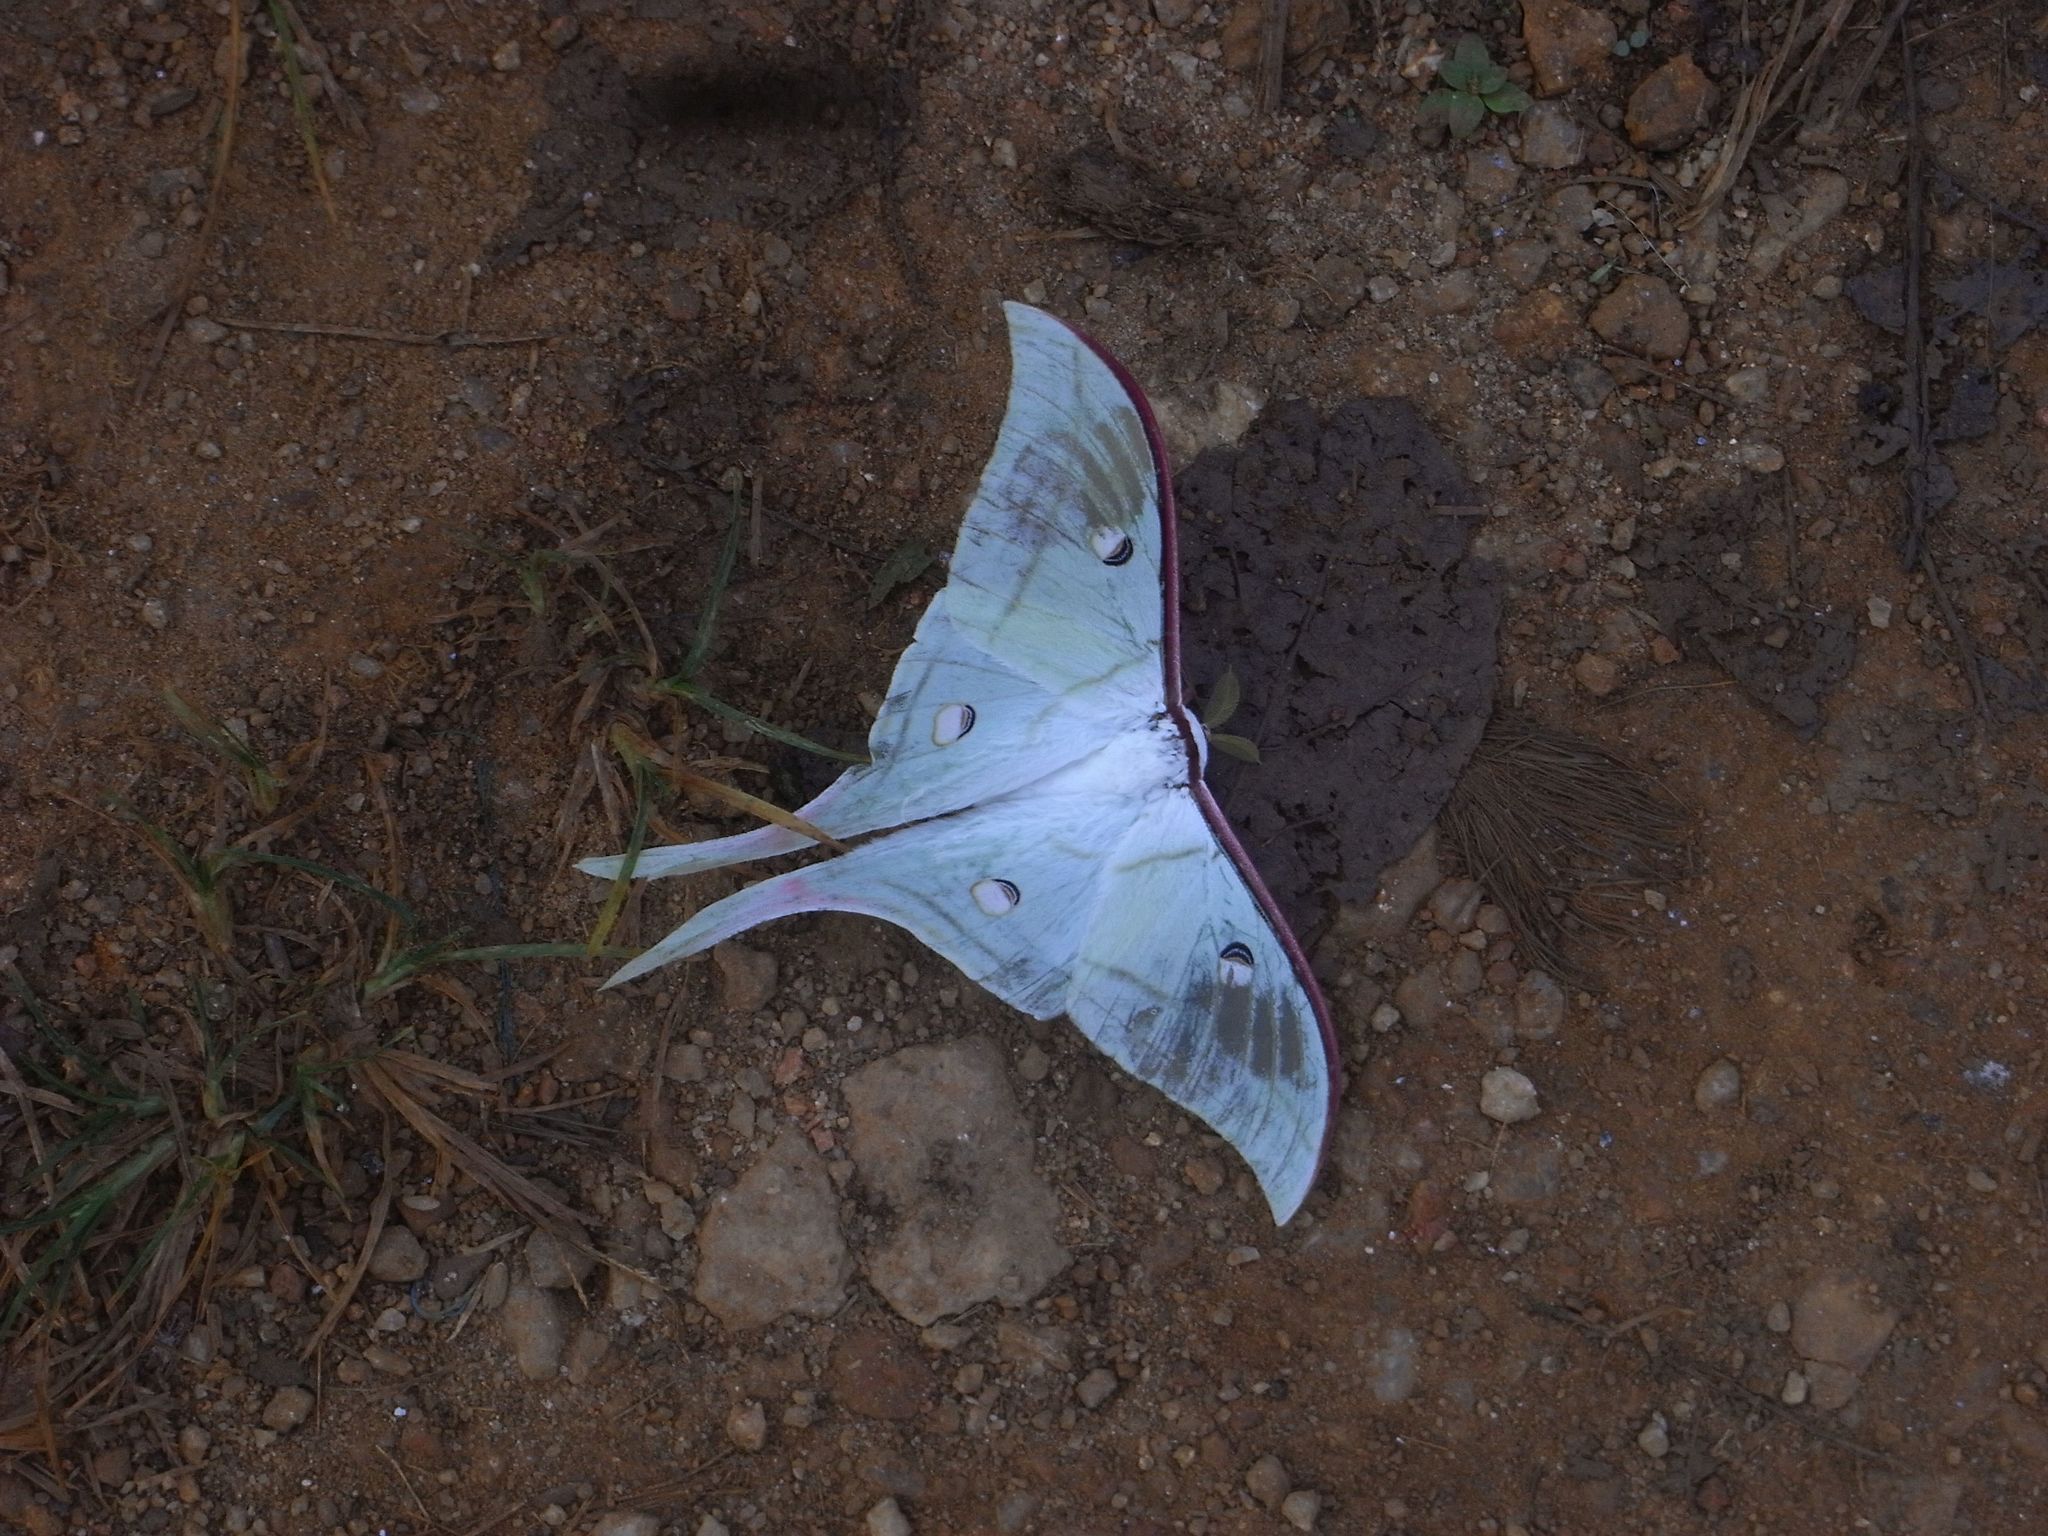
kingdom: Animalia
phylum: Arthropoda
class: Insecta
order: Lepidoptera
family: Saturniidae
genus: Actias
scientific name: Actias selene
